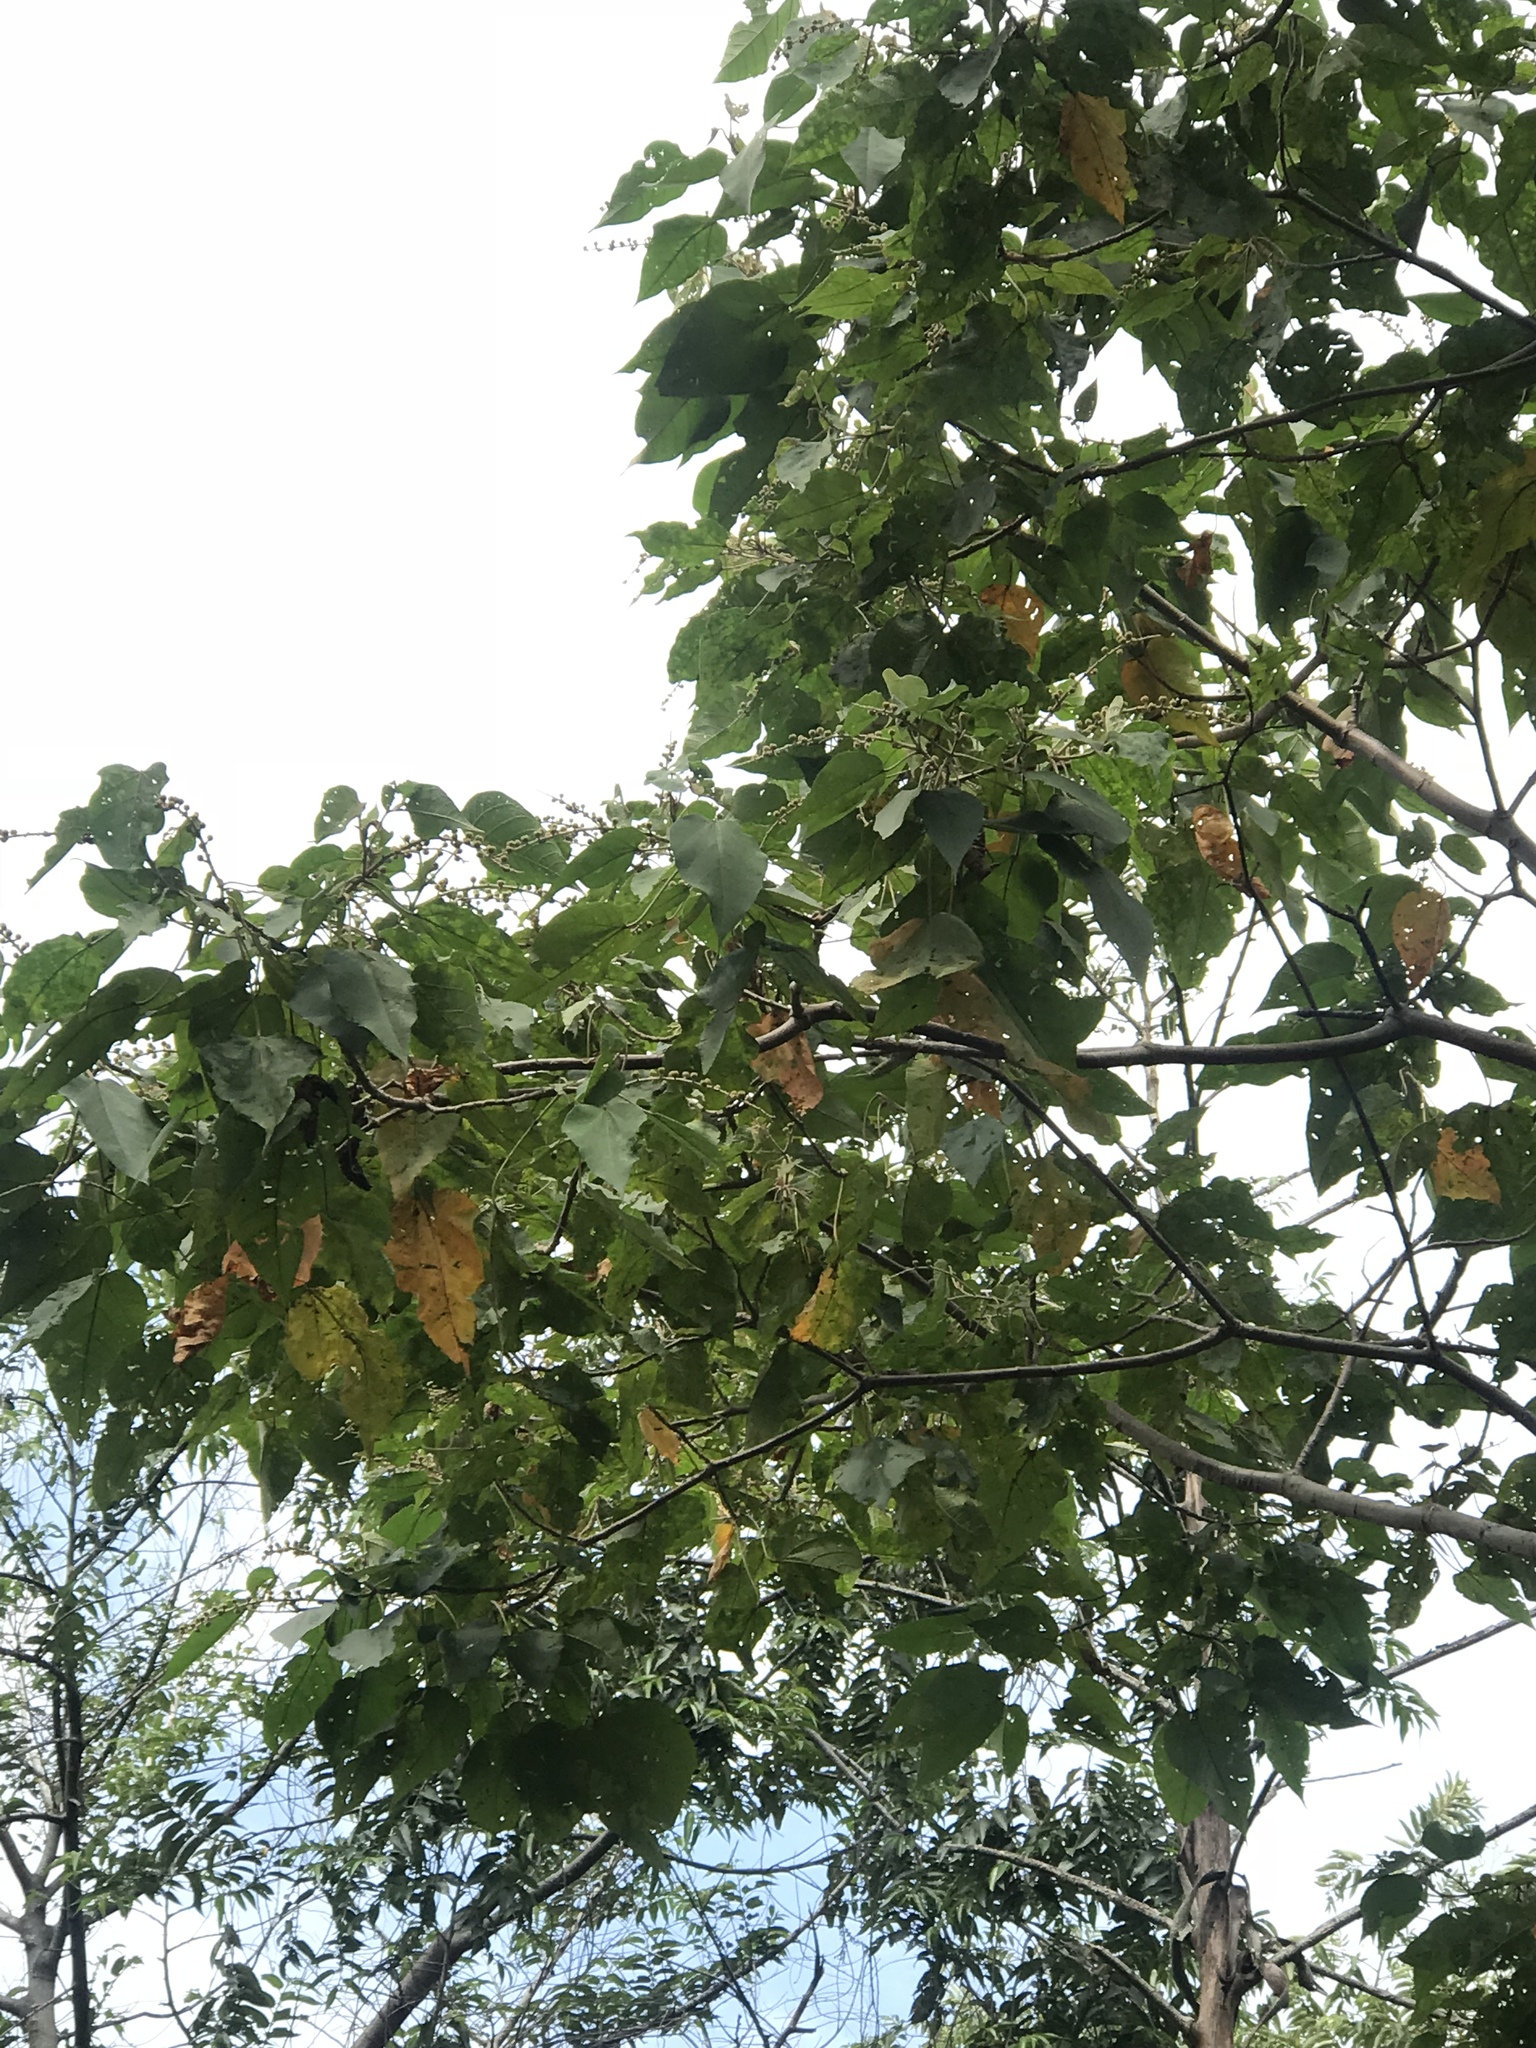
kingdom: Plantae
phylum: Tracheophyta
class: Magnoliopsida
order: Malpighiales
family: Euphorbiaceae
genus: Croton
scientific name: Croton draco
